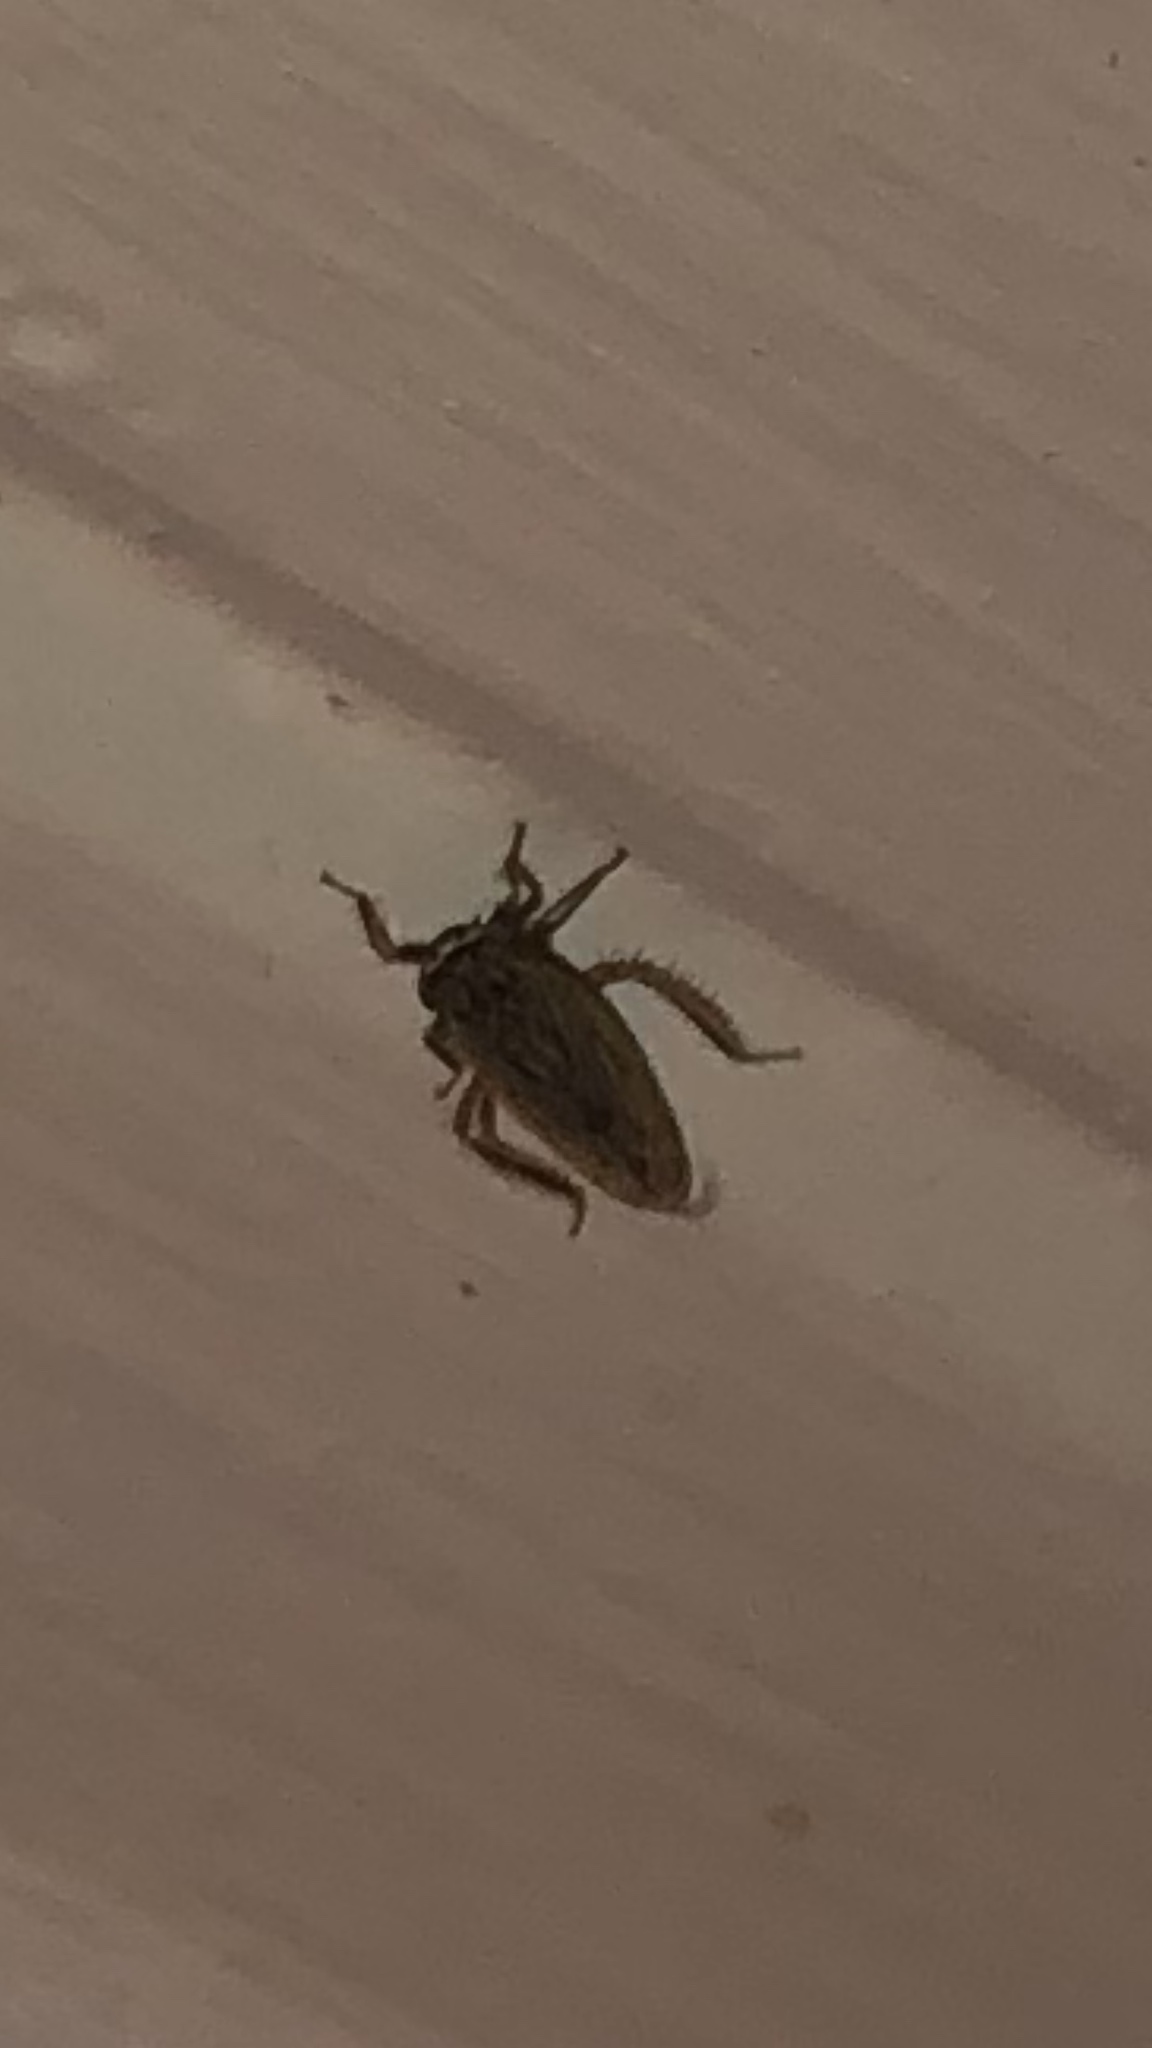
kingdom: Animalia
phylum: Arthropoda
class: Insecta
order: Hemiptera
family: Cicadellidae
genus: Exitianus
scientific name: Exitianus exitiosus
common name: Gray lawn leafhopper
